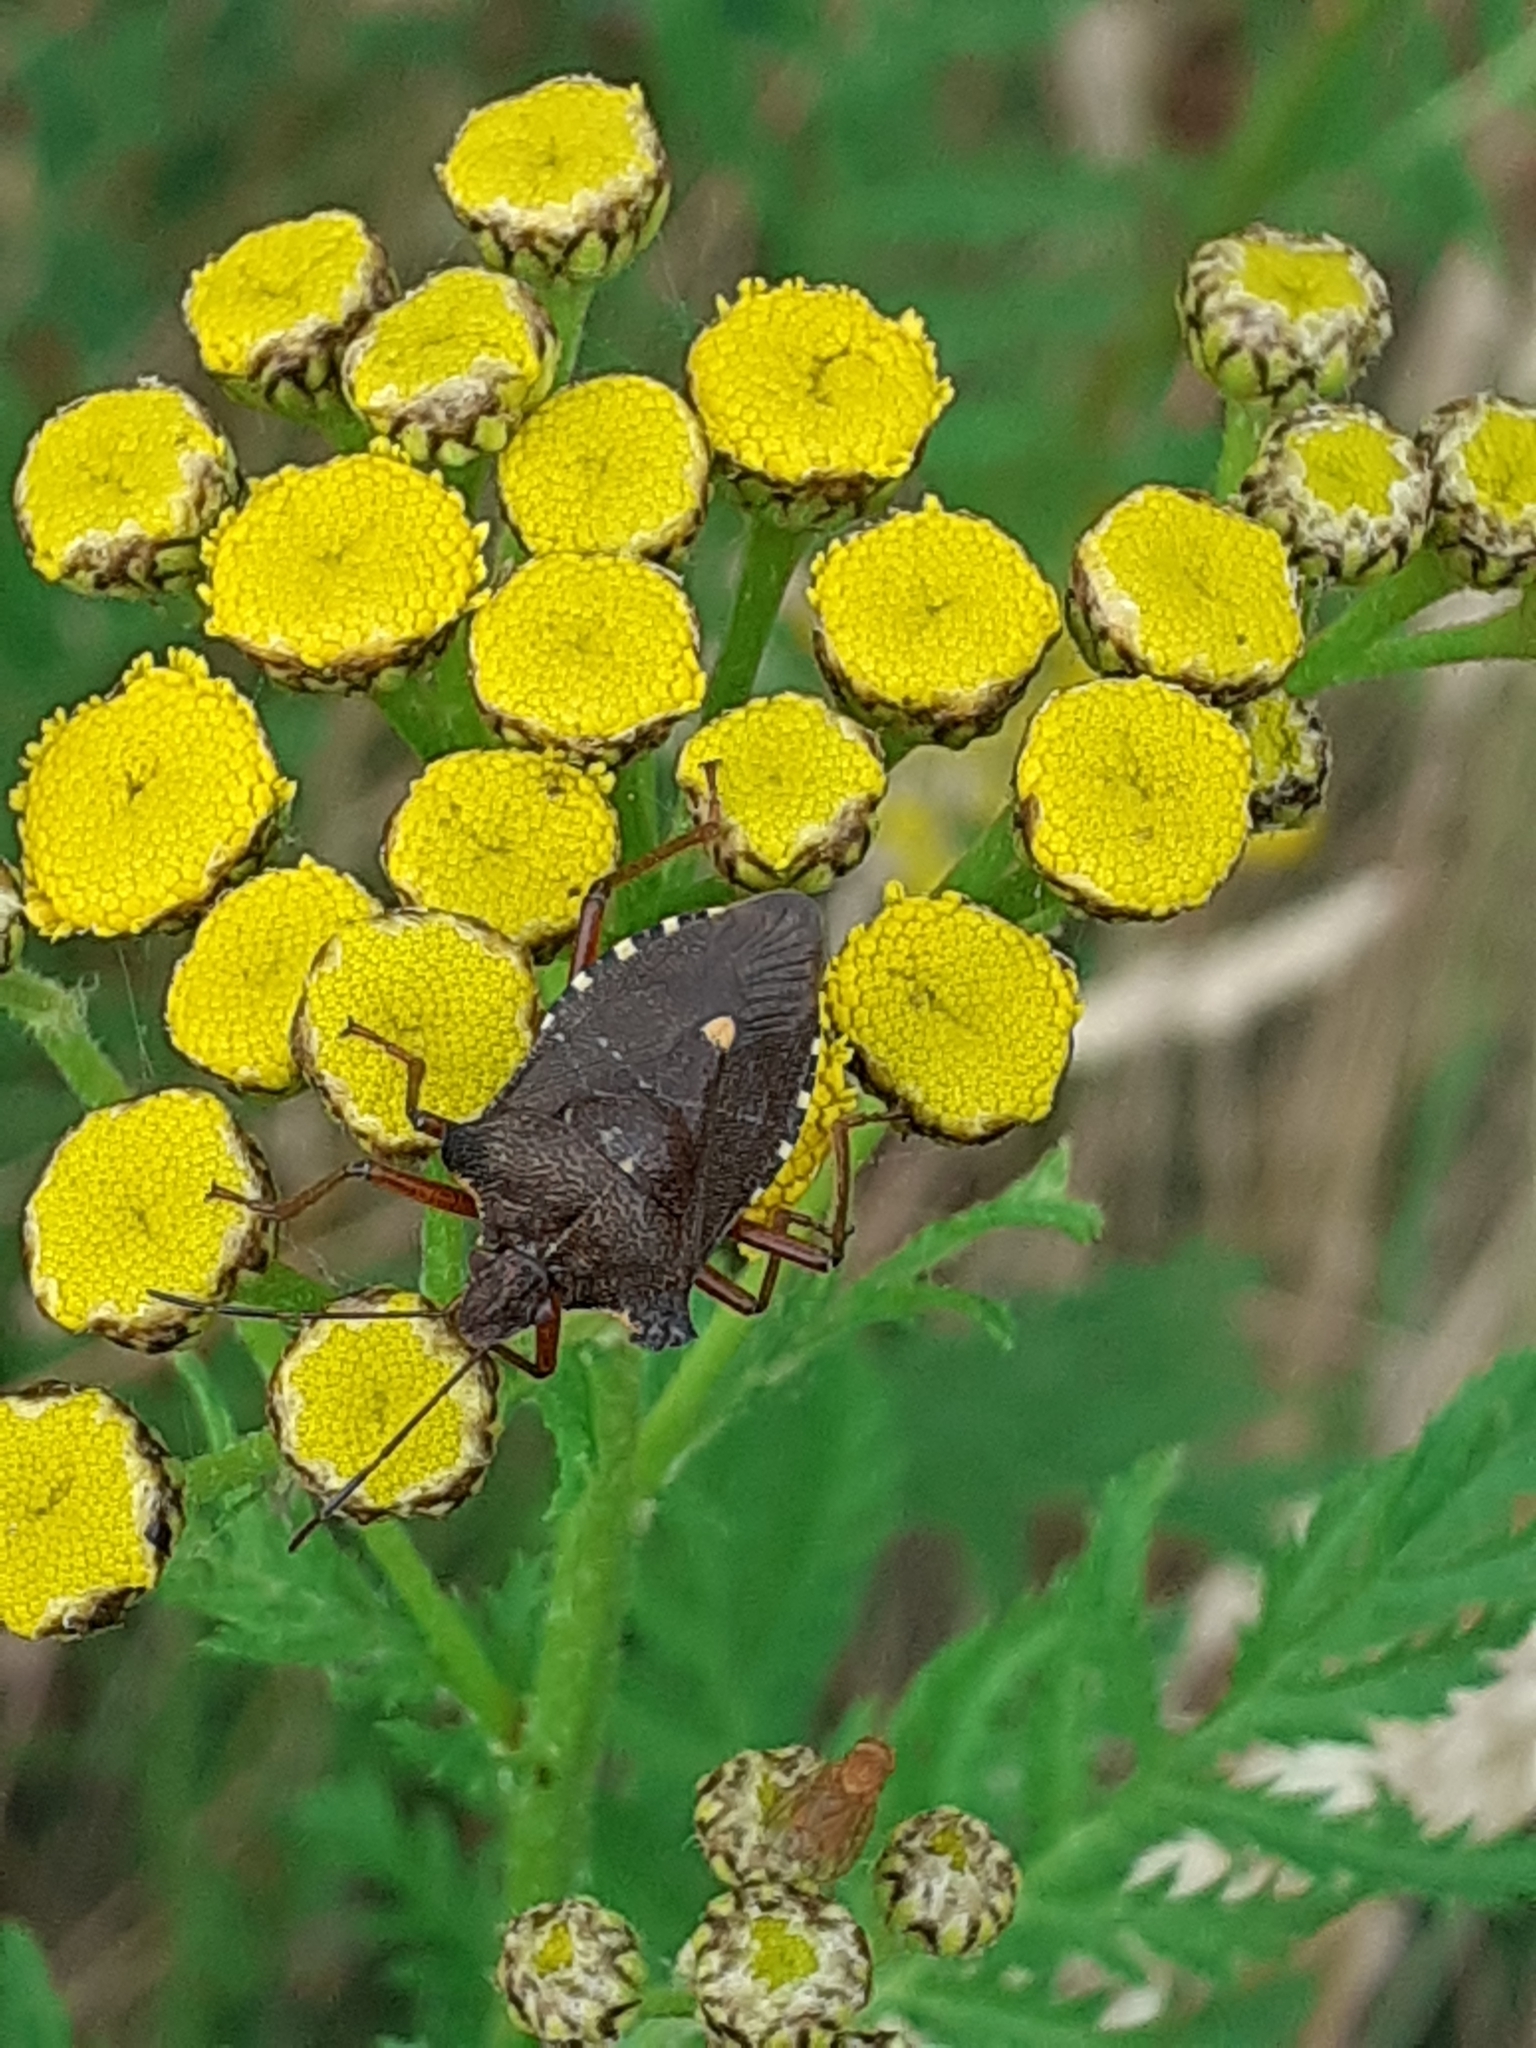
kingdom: Animalia
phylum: Arthropoda
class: Insecta
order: Hemiptera
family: Pentatomidae
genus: Pentatoma
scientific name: Pentatoma rufipes
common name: Forest bug
